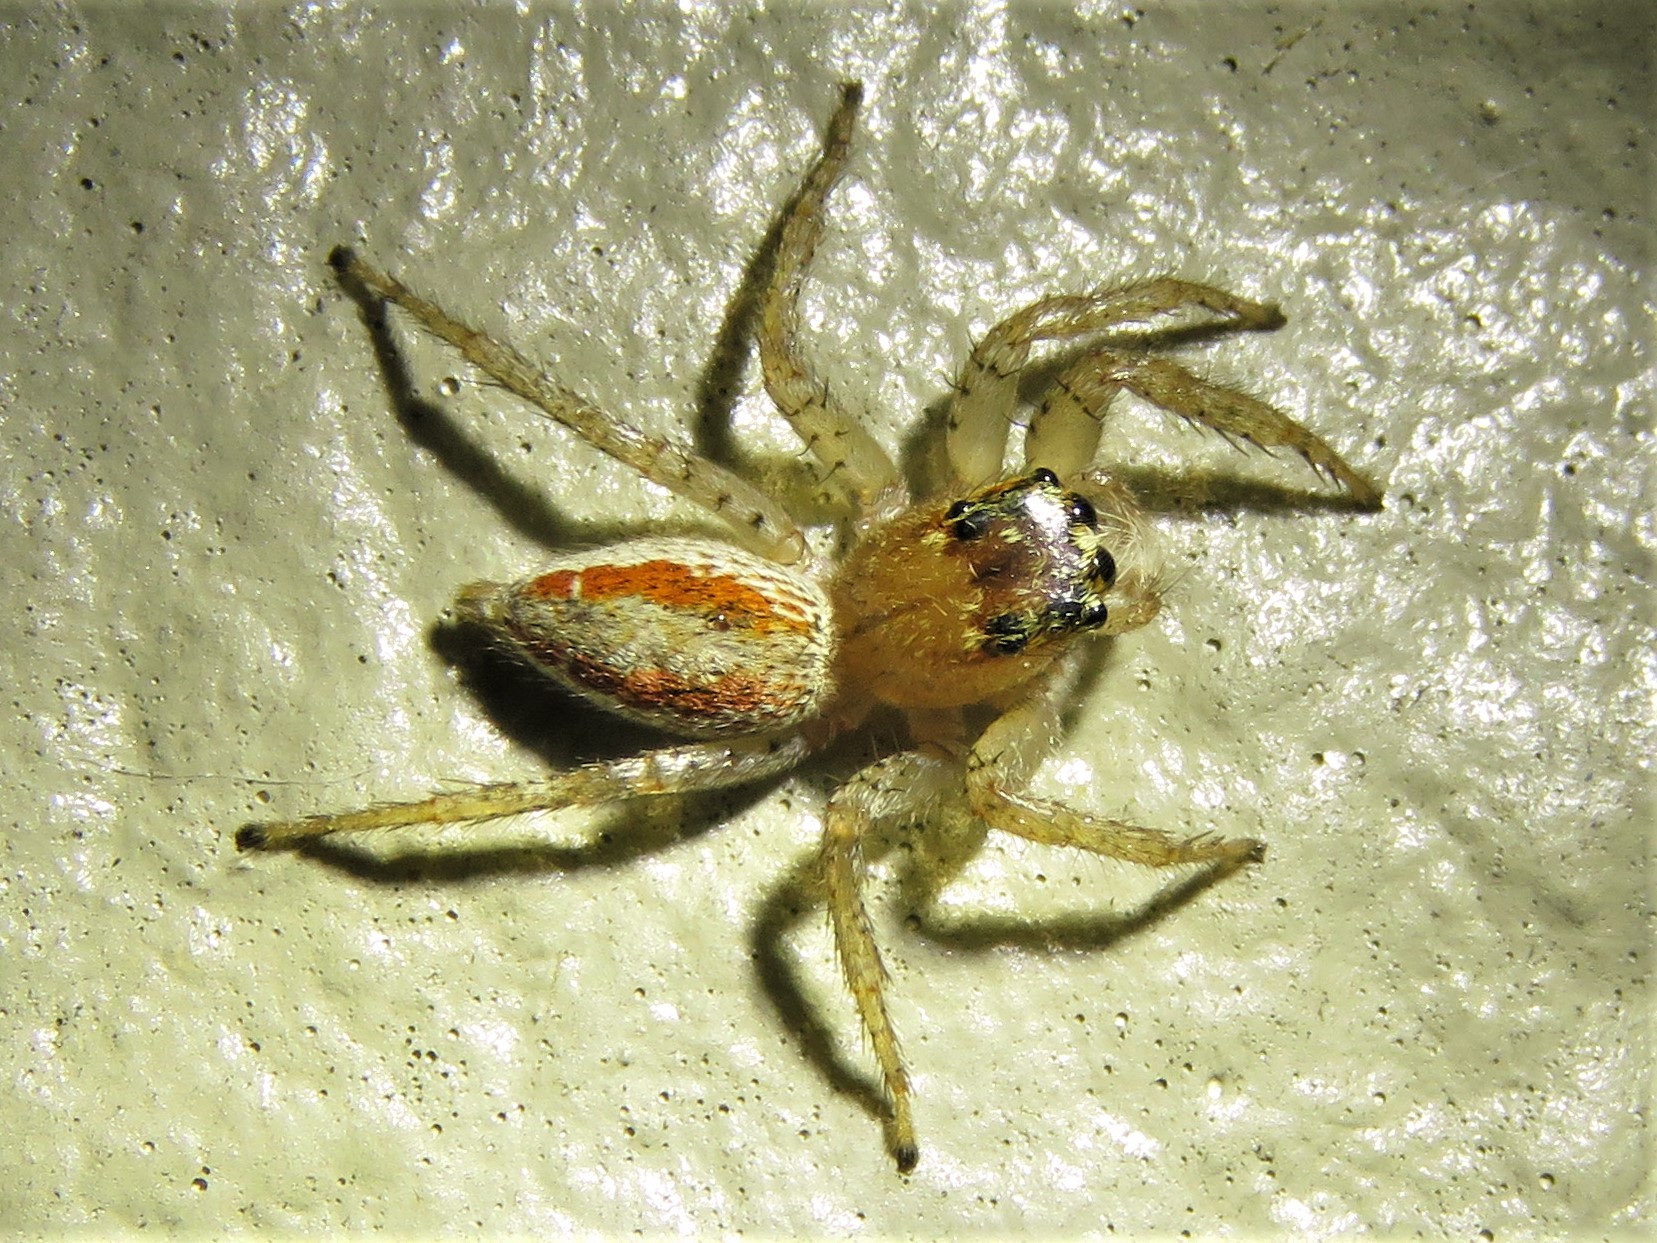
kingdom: Animalia
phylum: Arthropoda
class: Arachnida
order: Araneae
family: Salticidae
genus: Maevia
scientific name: Maevia inclemens
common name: Dimorphic jumper
